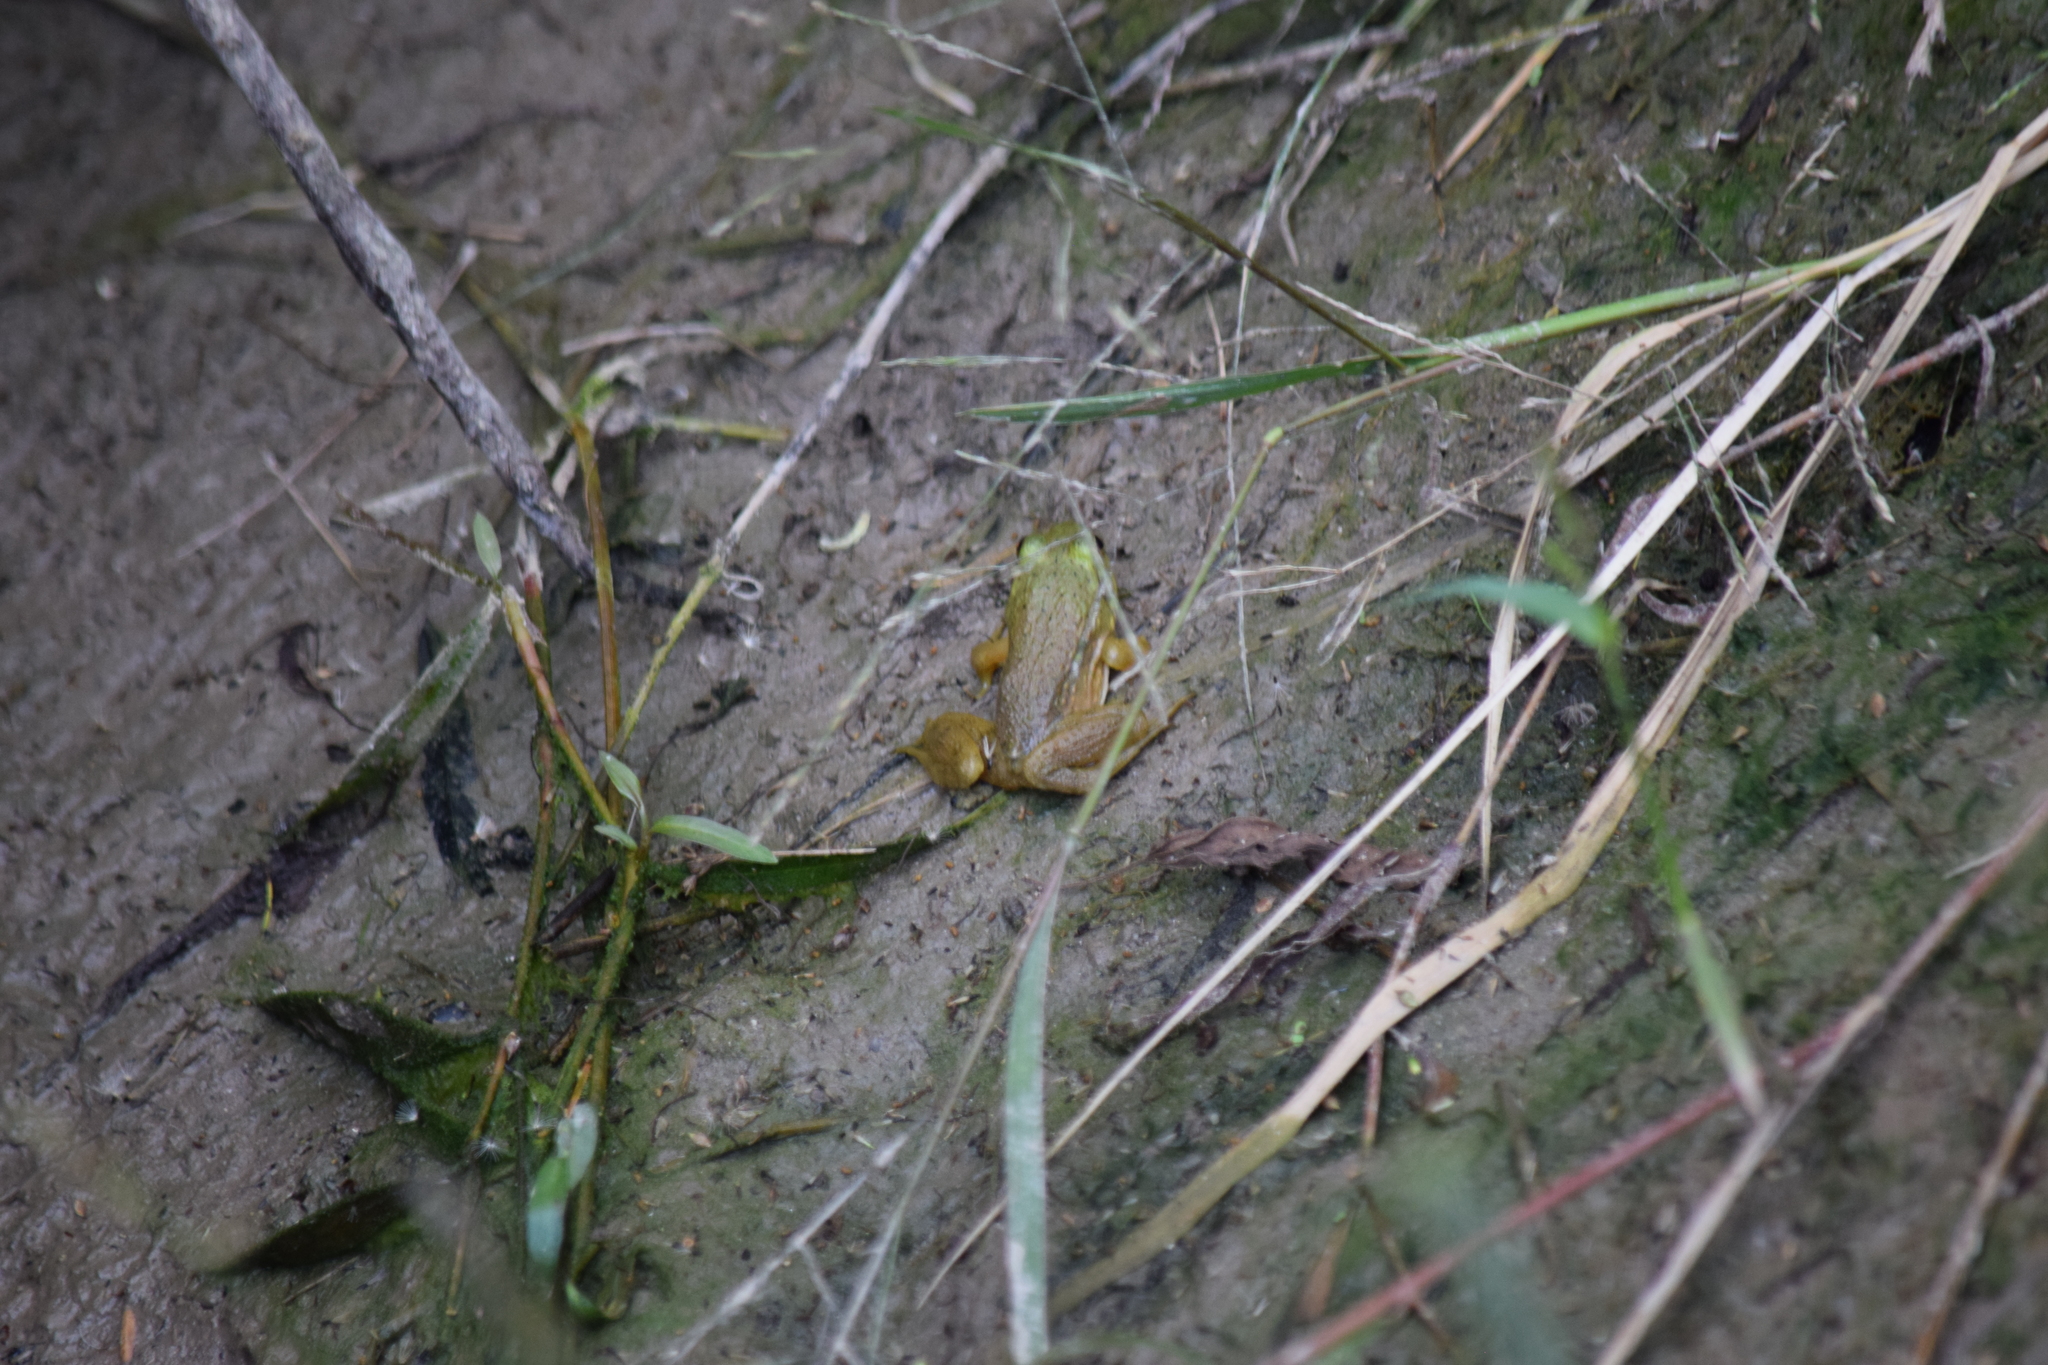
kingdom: Animalia
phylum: Chordata
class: Amphibia
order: Anura
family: Ranidae
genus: Lithobates
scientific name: Lithobates catesbeianus
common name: American bullfrog
